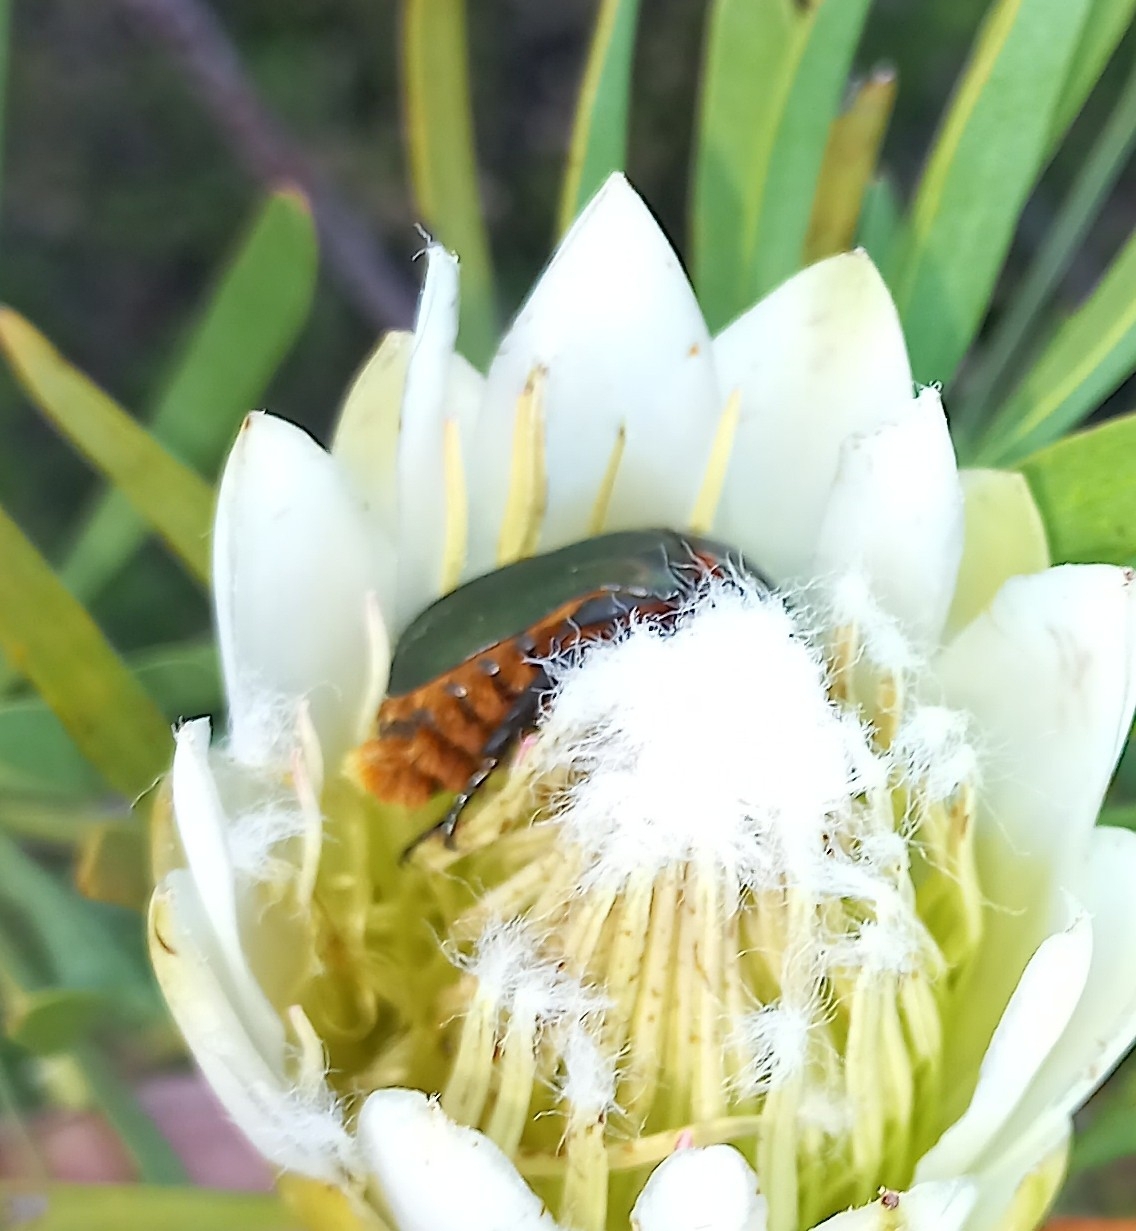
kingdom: Animalia
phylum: Arthropoda
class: Insecta
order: Coleoptera
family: Scarabaeidae
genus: Trichostetha
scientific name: Trichostetha fascicularis
